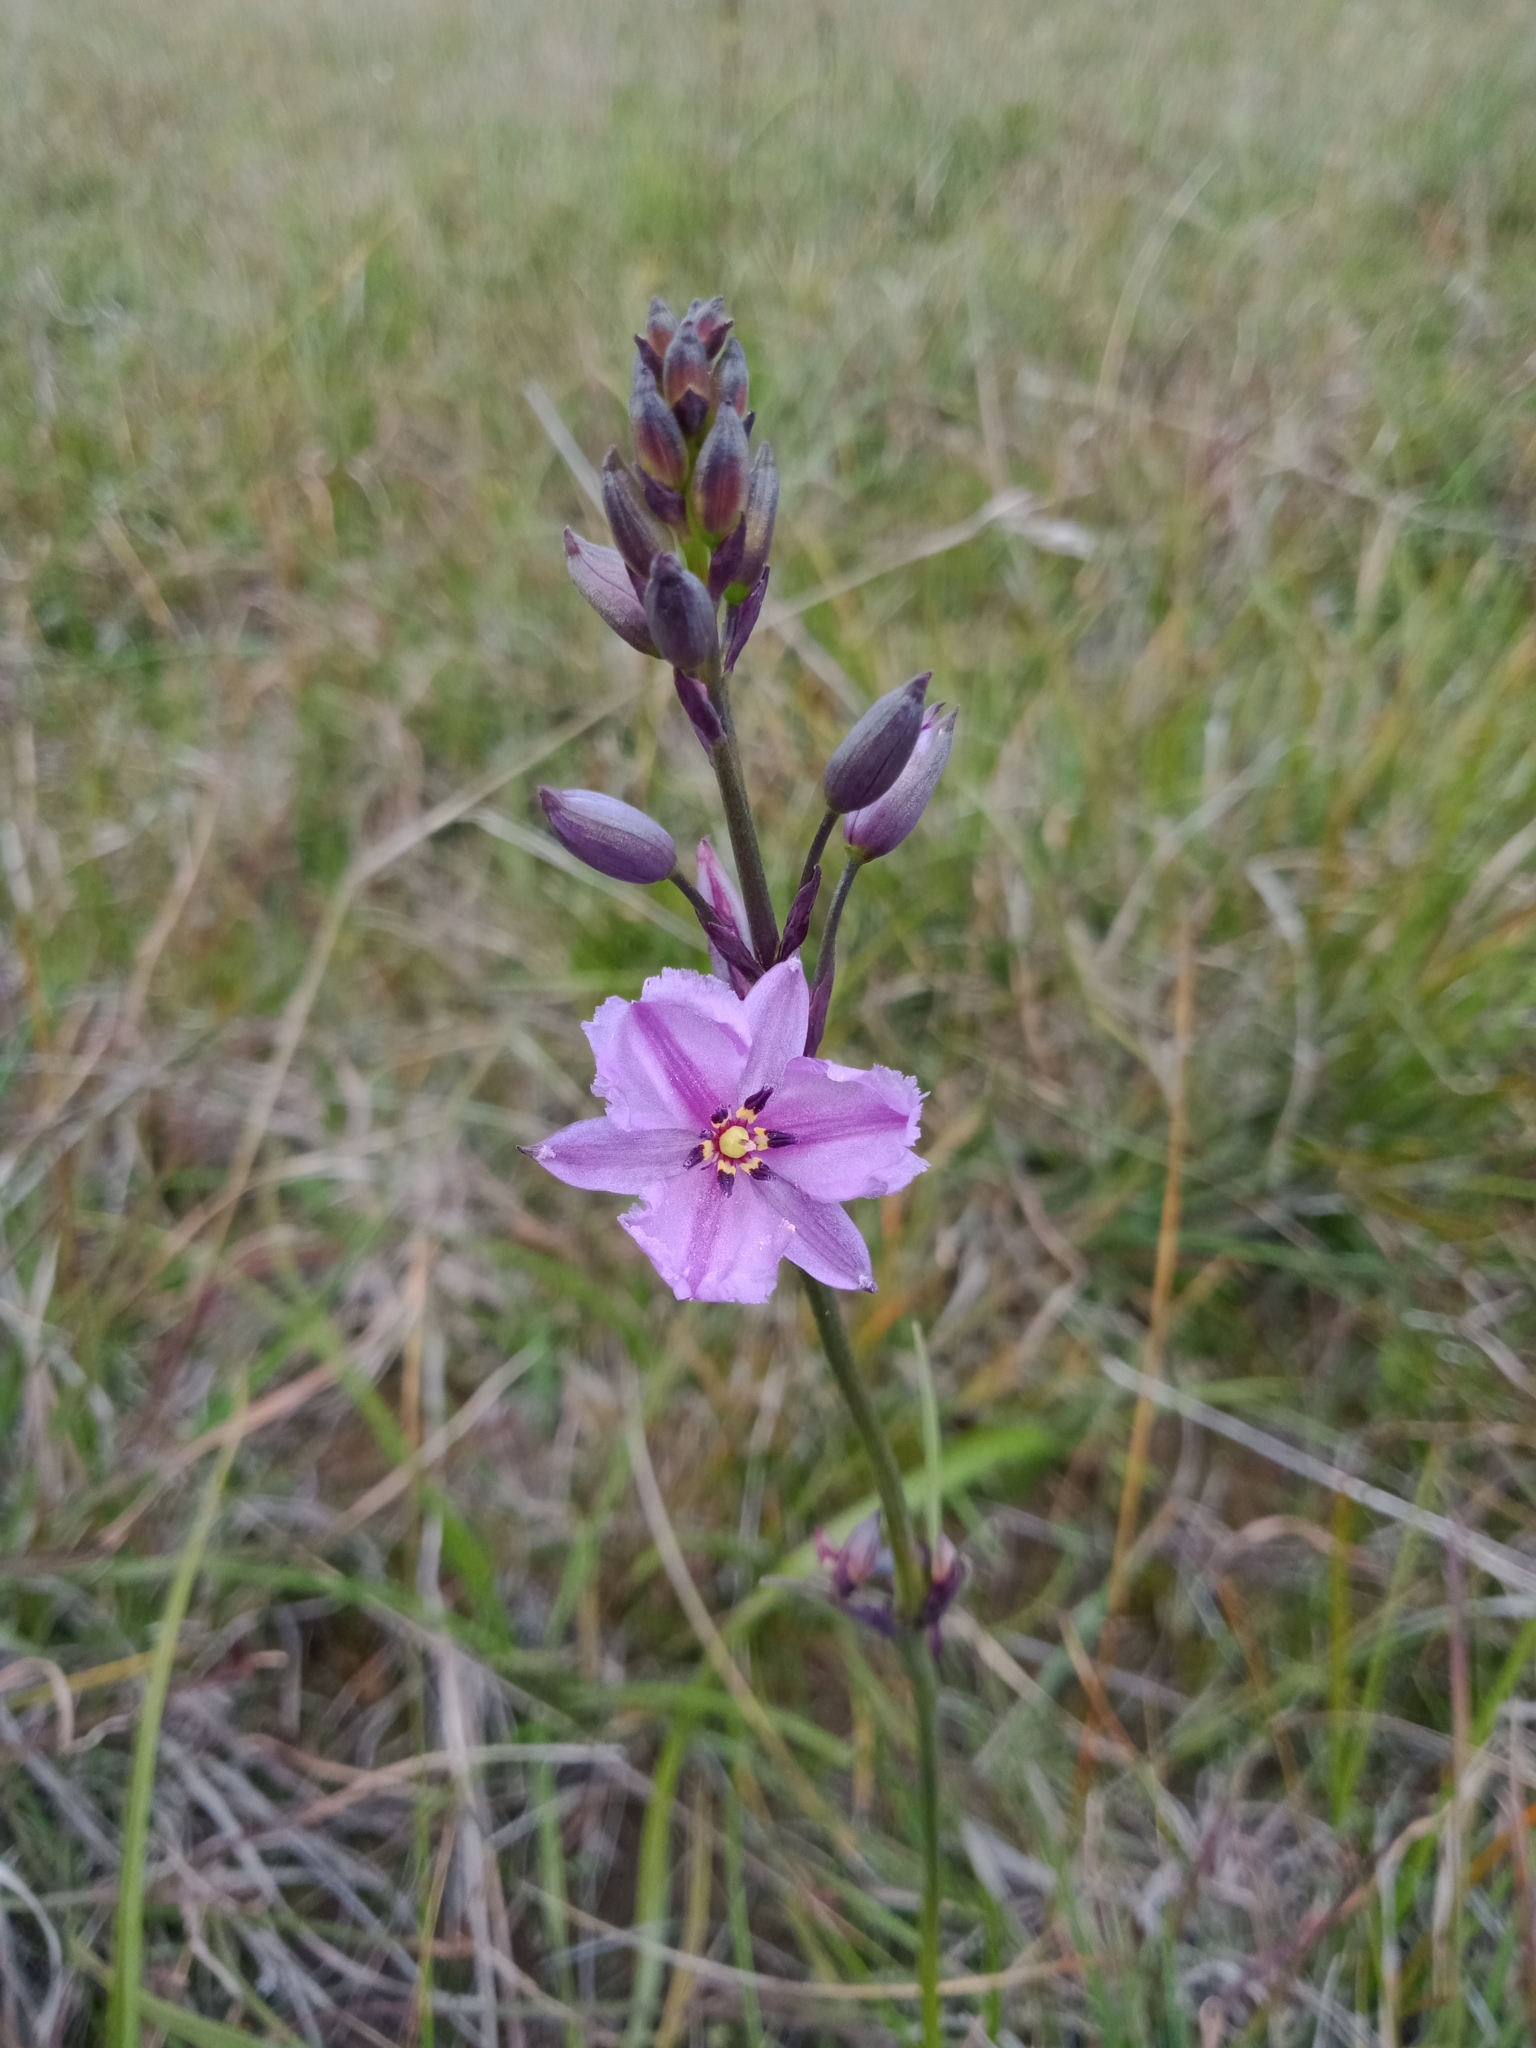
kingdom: Plantae
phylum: Tracheophyta
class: Liliopsida
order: Asparagales
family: Asparagaceae
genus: Arthropodium
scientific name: Arthropodium strictum
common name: Chocolate-lily
